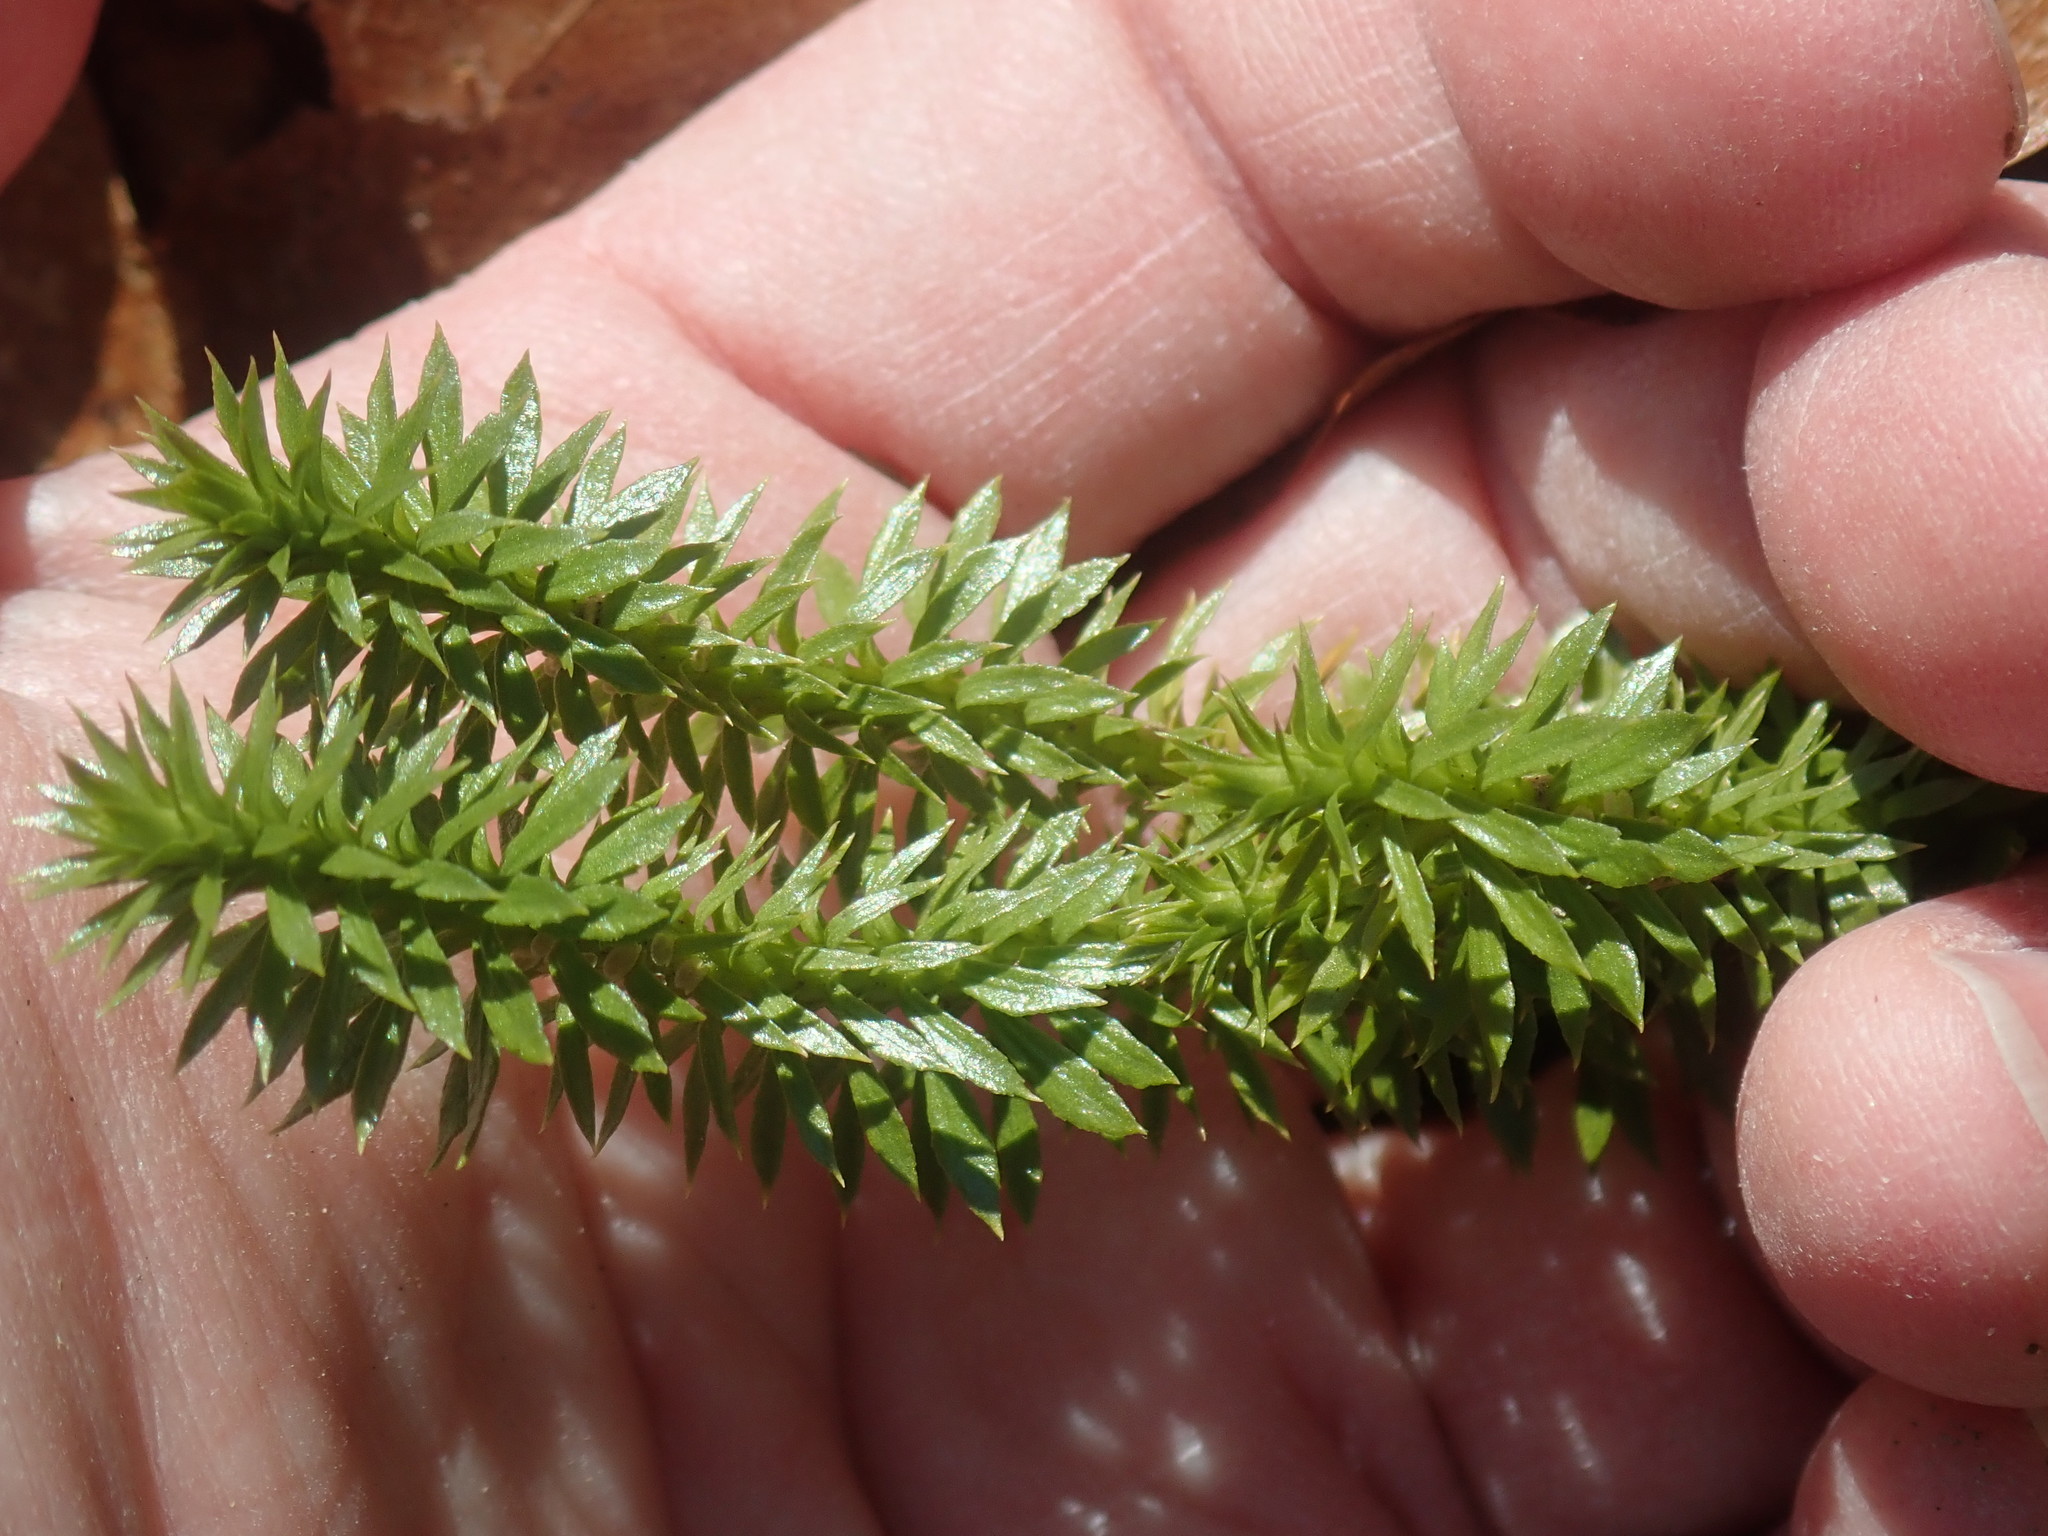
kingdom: Plantae
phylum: Tracheophyta
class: Lycopodiopsida
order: Lycopodiales
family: Lycopodiaceae
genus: Huperzia
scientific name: Huperzia lucidula
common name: Shining clubmoss
